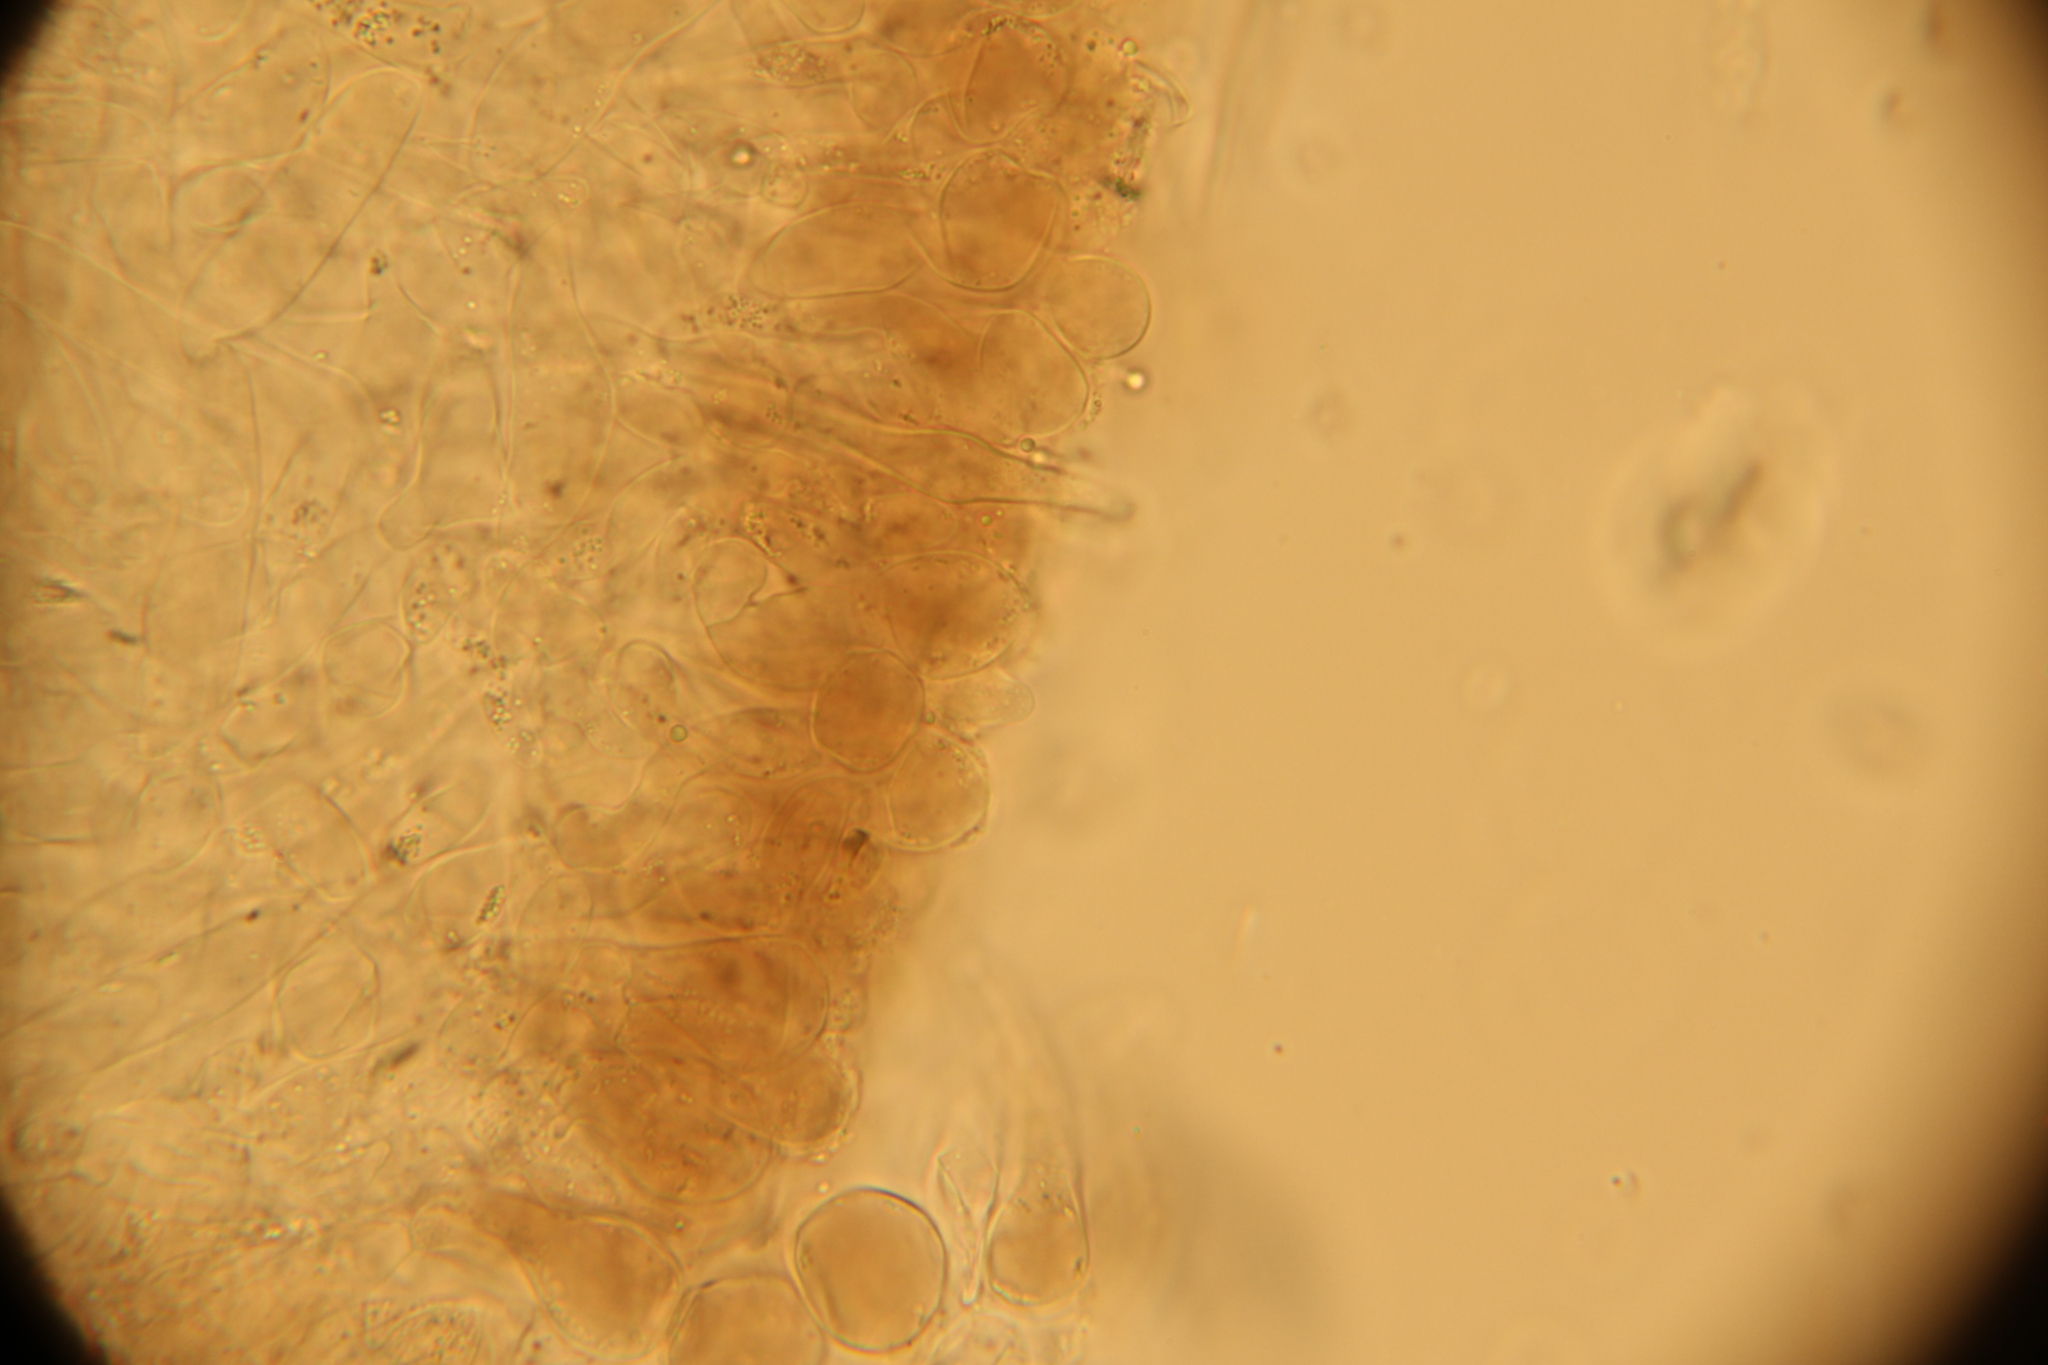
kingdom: Fungi
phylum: Basidiomycota
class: Agaricomycetes
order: Agaricales
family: Physalacriaceae
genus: Strobilurus
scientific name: Strobilurus esculentus
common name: Sprucecone cap
